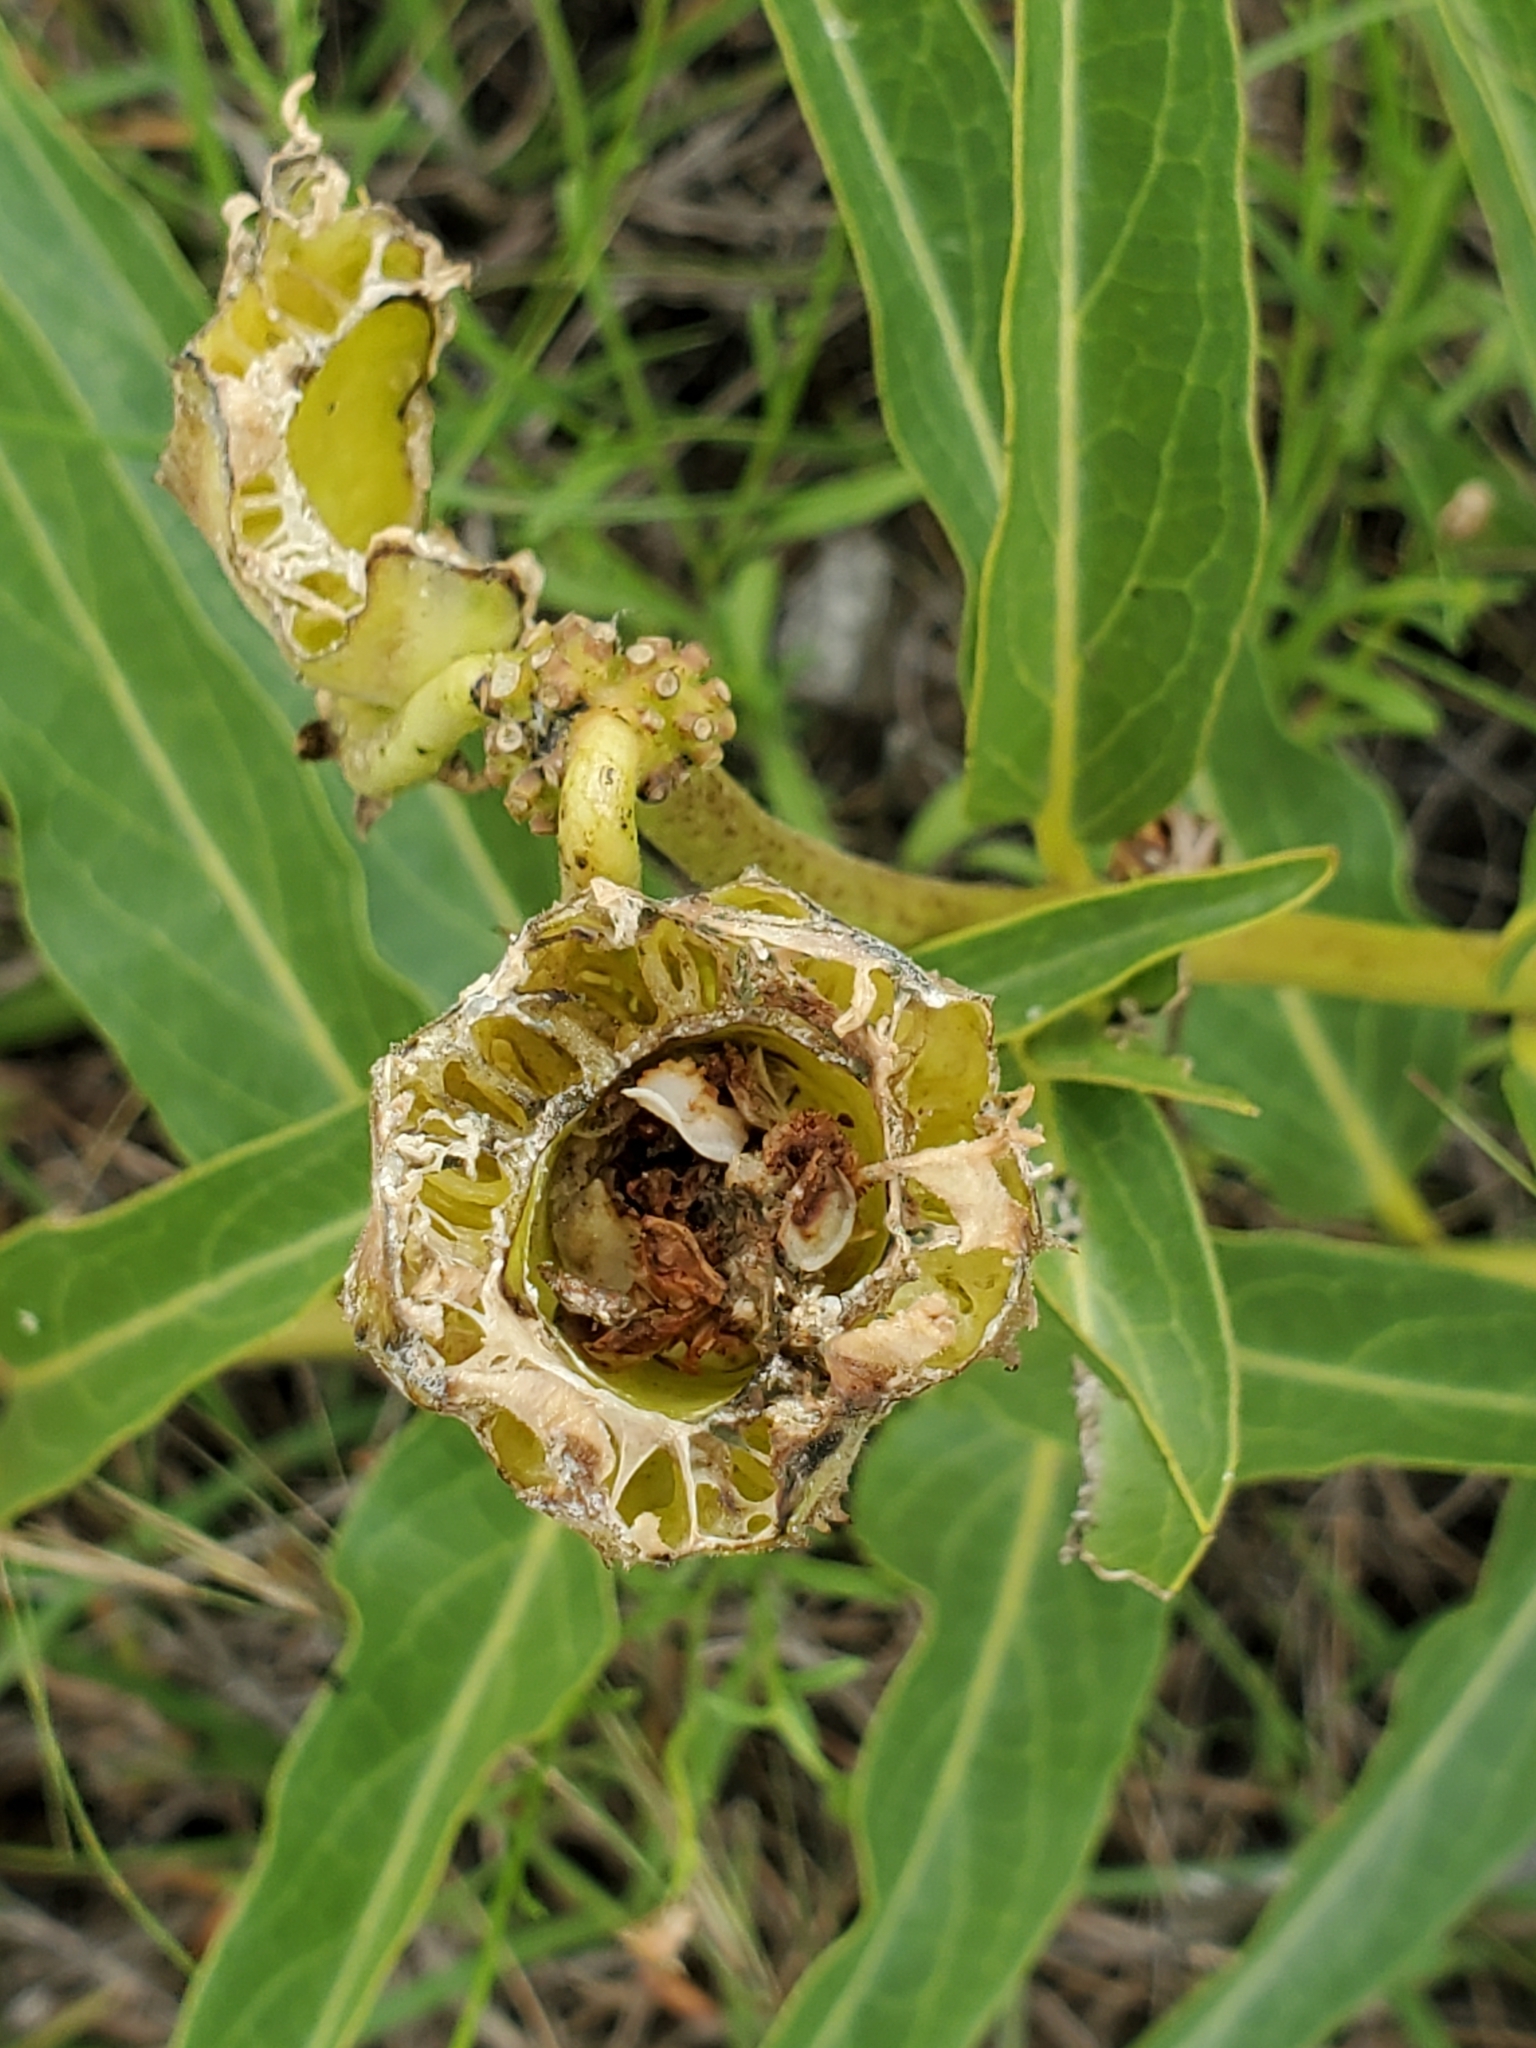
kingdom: Plantae
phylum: Tracheophyta
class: Magnoliopsida
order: Gentianales
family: Apocynaceae
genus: Asclepias
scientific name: Asclepias asperula
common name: Antelope horns
